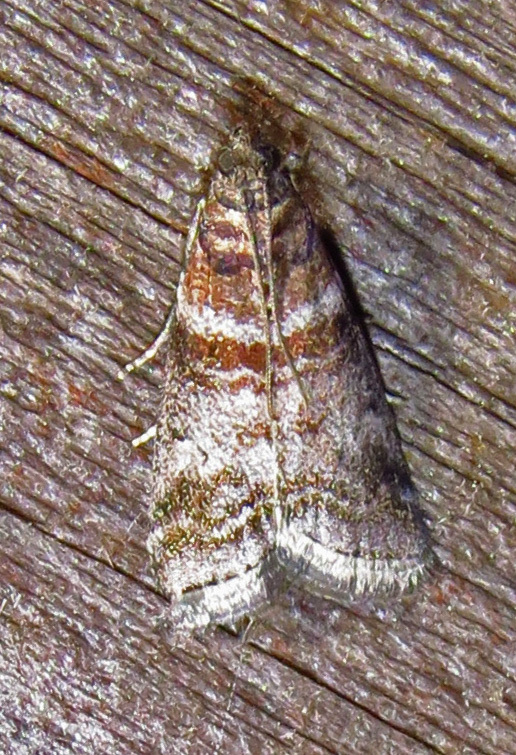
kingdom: Animalia
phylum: Arthropoda
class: Insecta
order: Lepidoptera
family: Pyralidae
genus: Sciota
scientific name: Sciota uvinella
